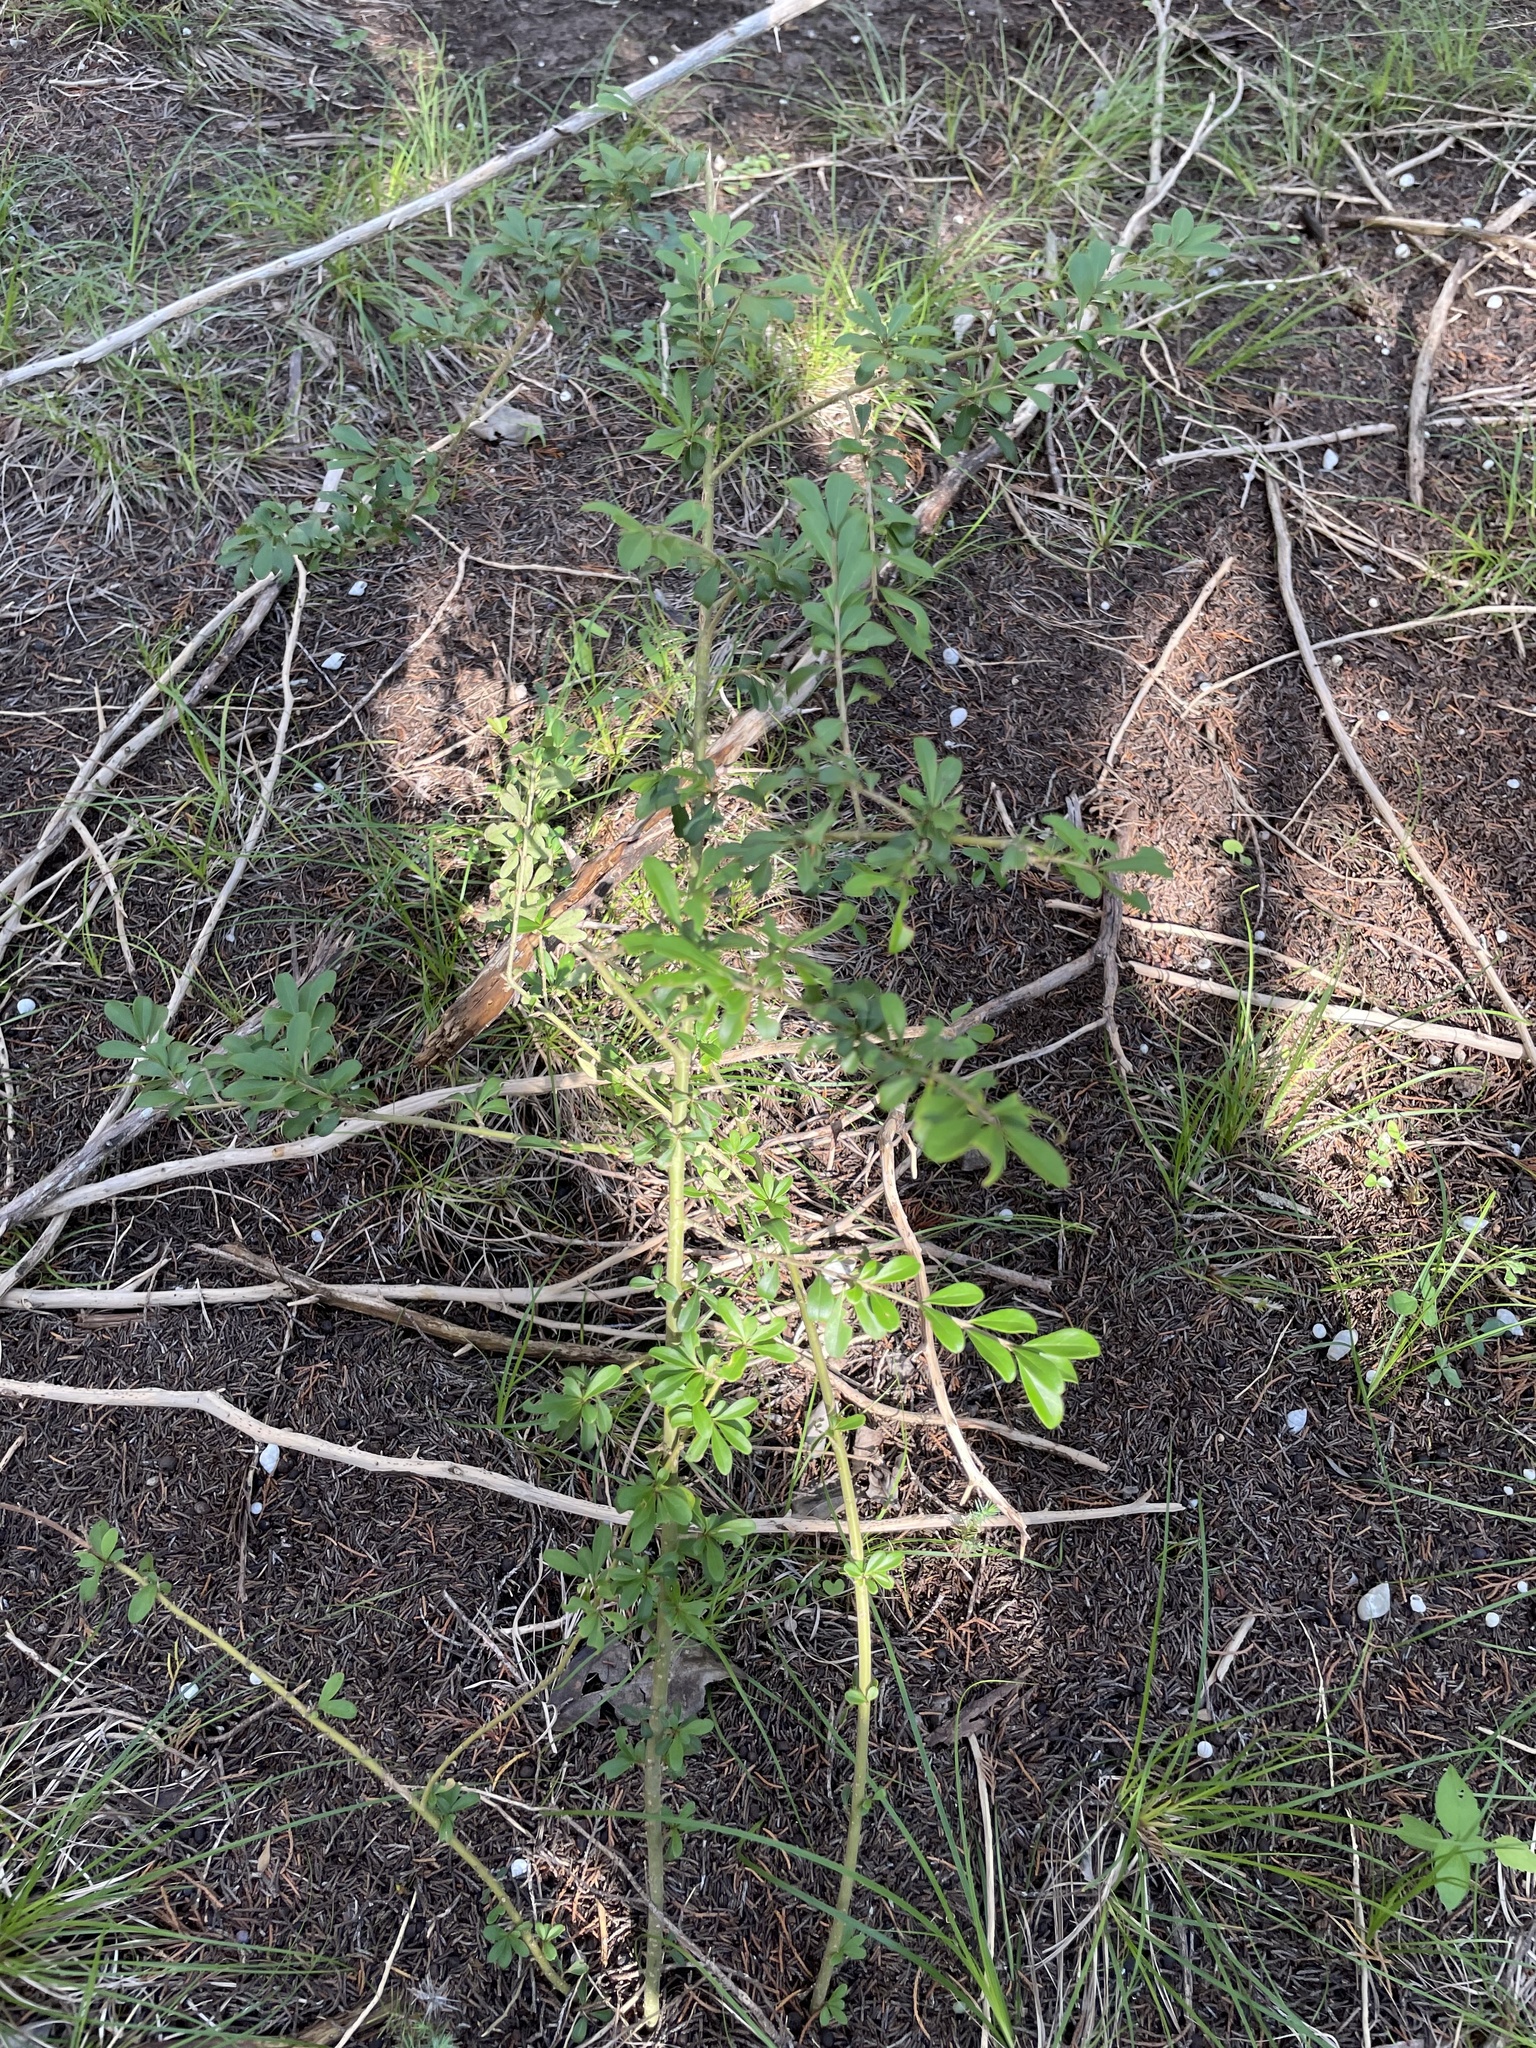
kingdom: Plantae
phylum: Tracheophyta
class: Magnoliopsida
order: Lamiales
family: Oleaceae
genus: Ligustrum
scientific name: Ligustrum quihoui
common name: Waxyleaf privet
